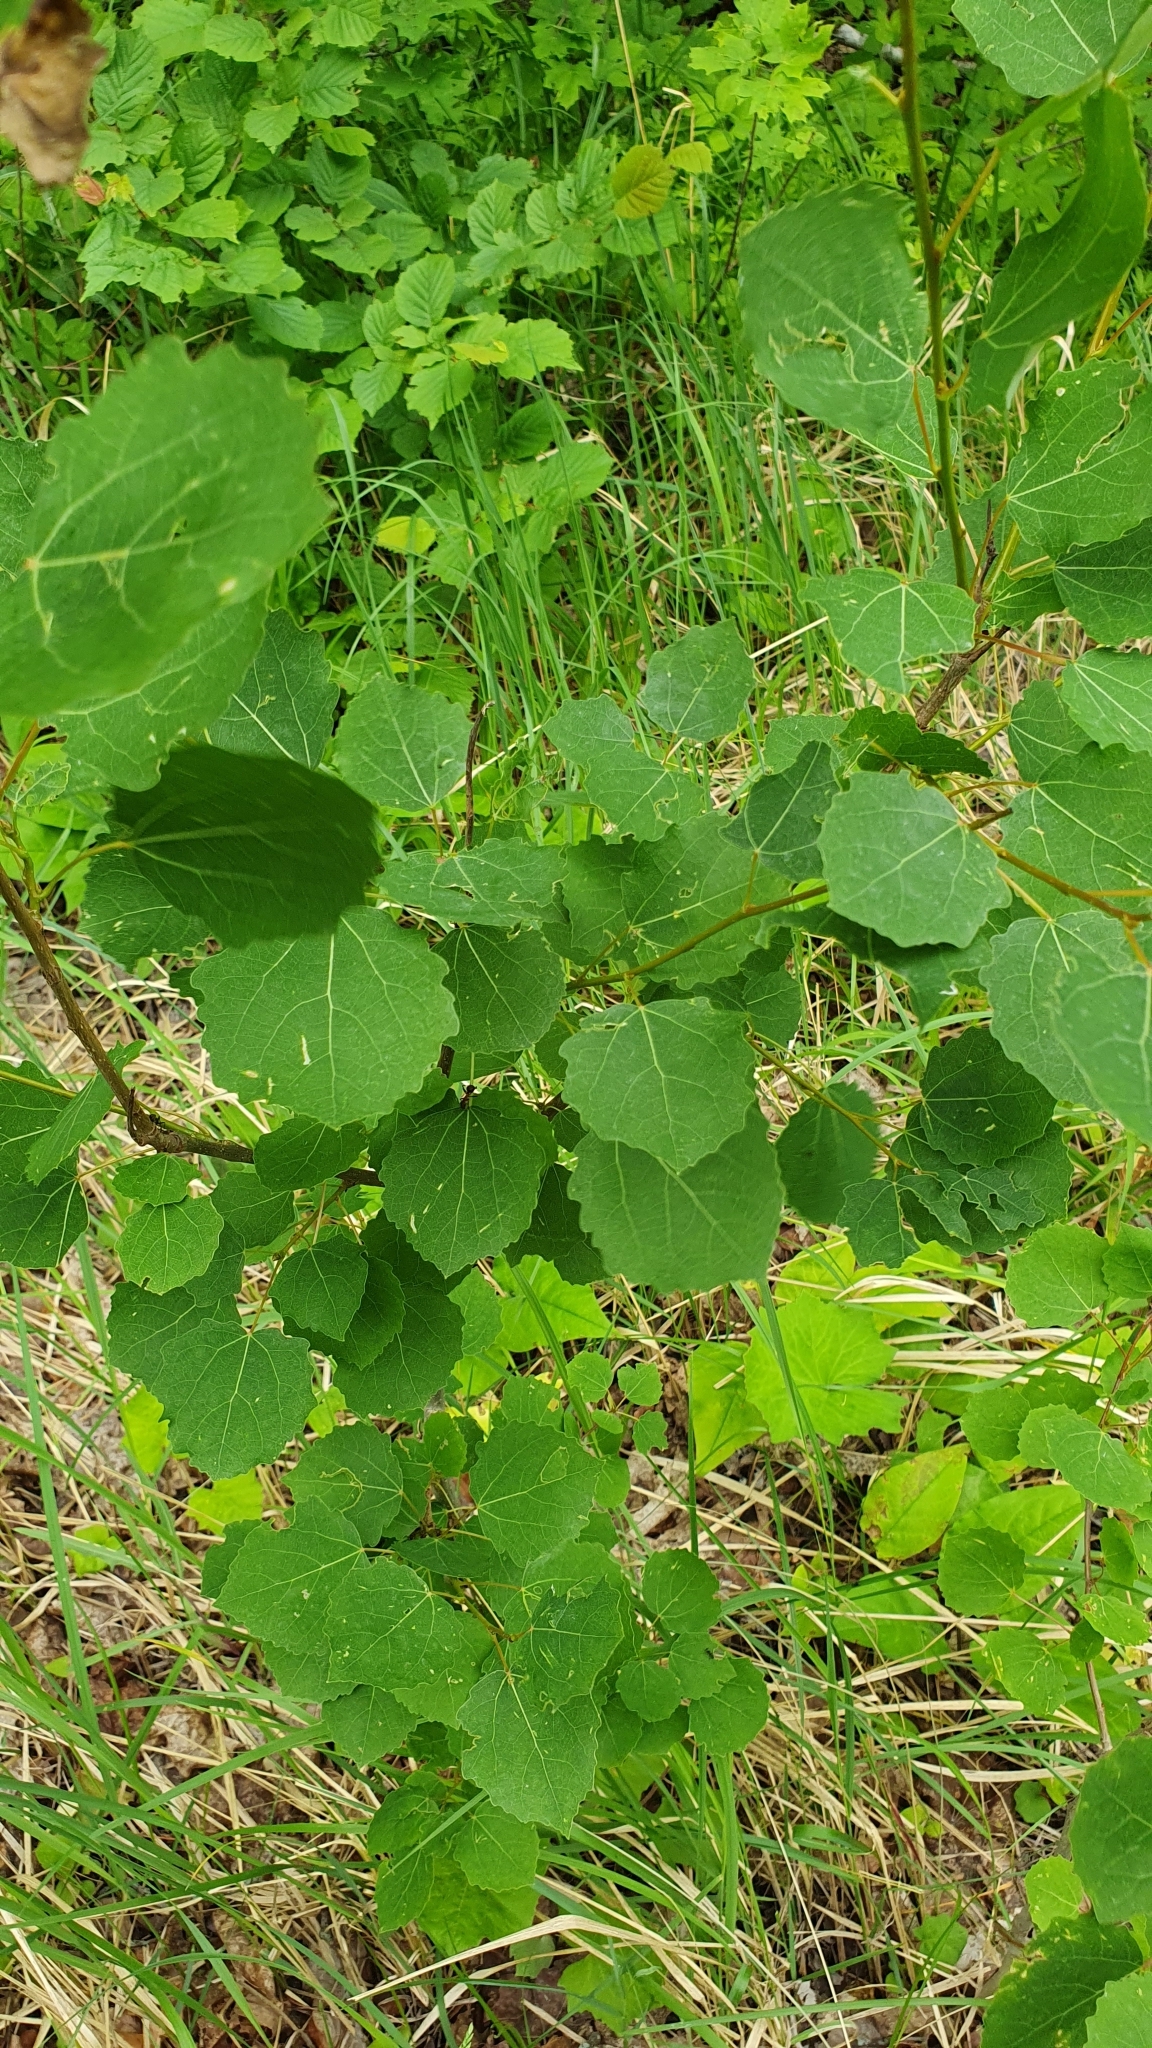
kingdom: Plantae
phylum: Tracheophyta
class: Magnoliopsida
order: Malpighiales
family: Salicaceae
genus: Populus
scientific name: Populus tremula
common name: European aspen
